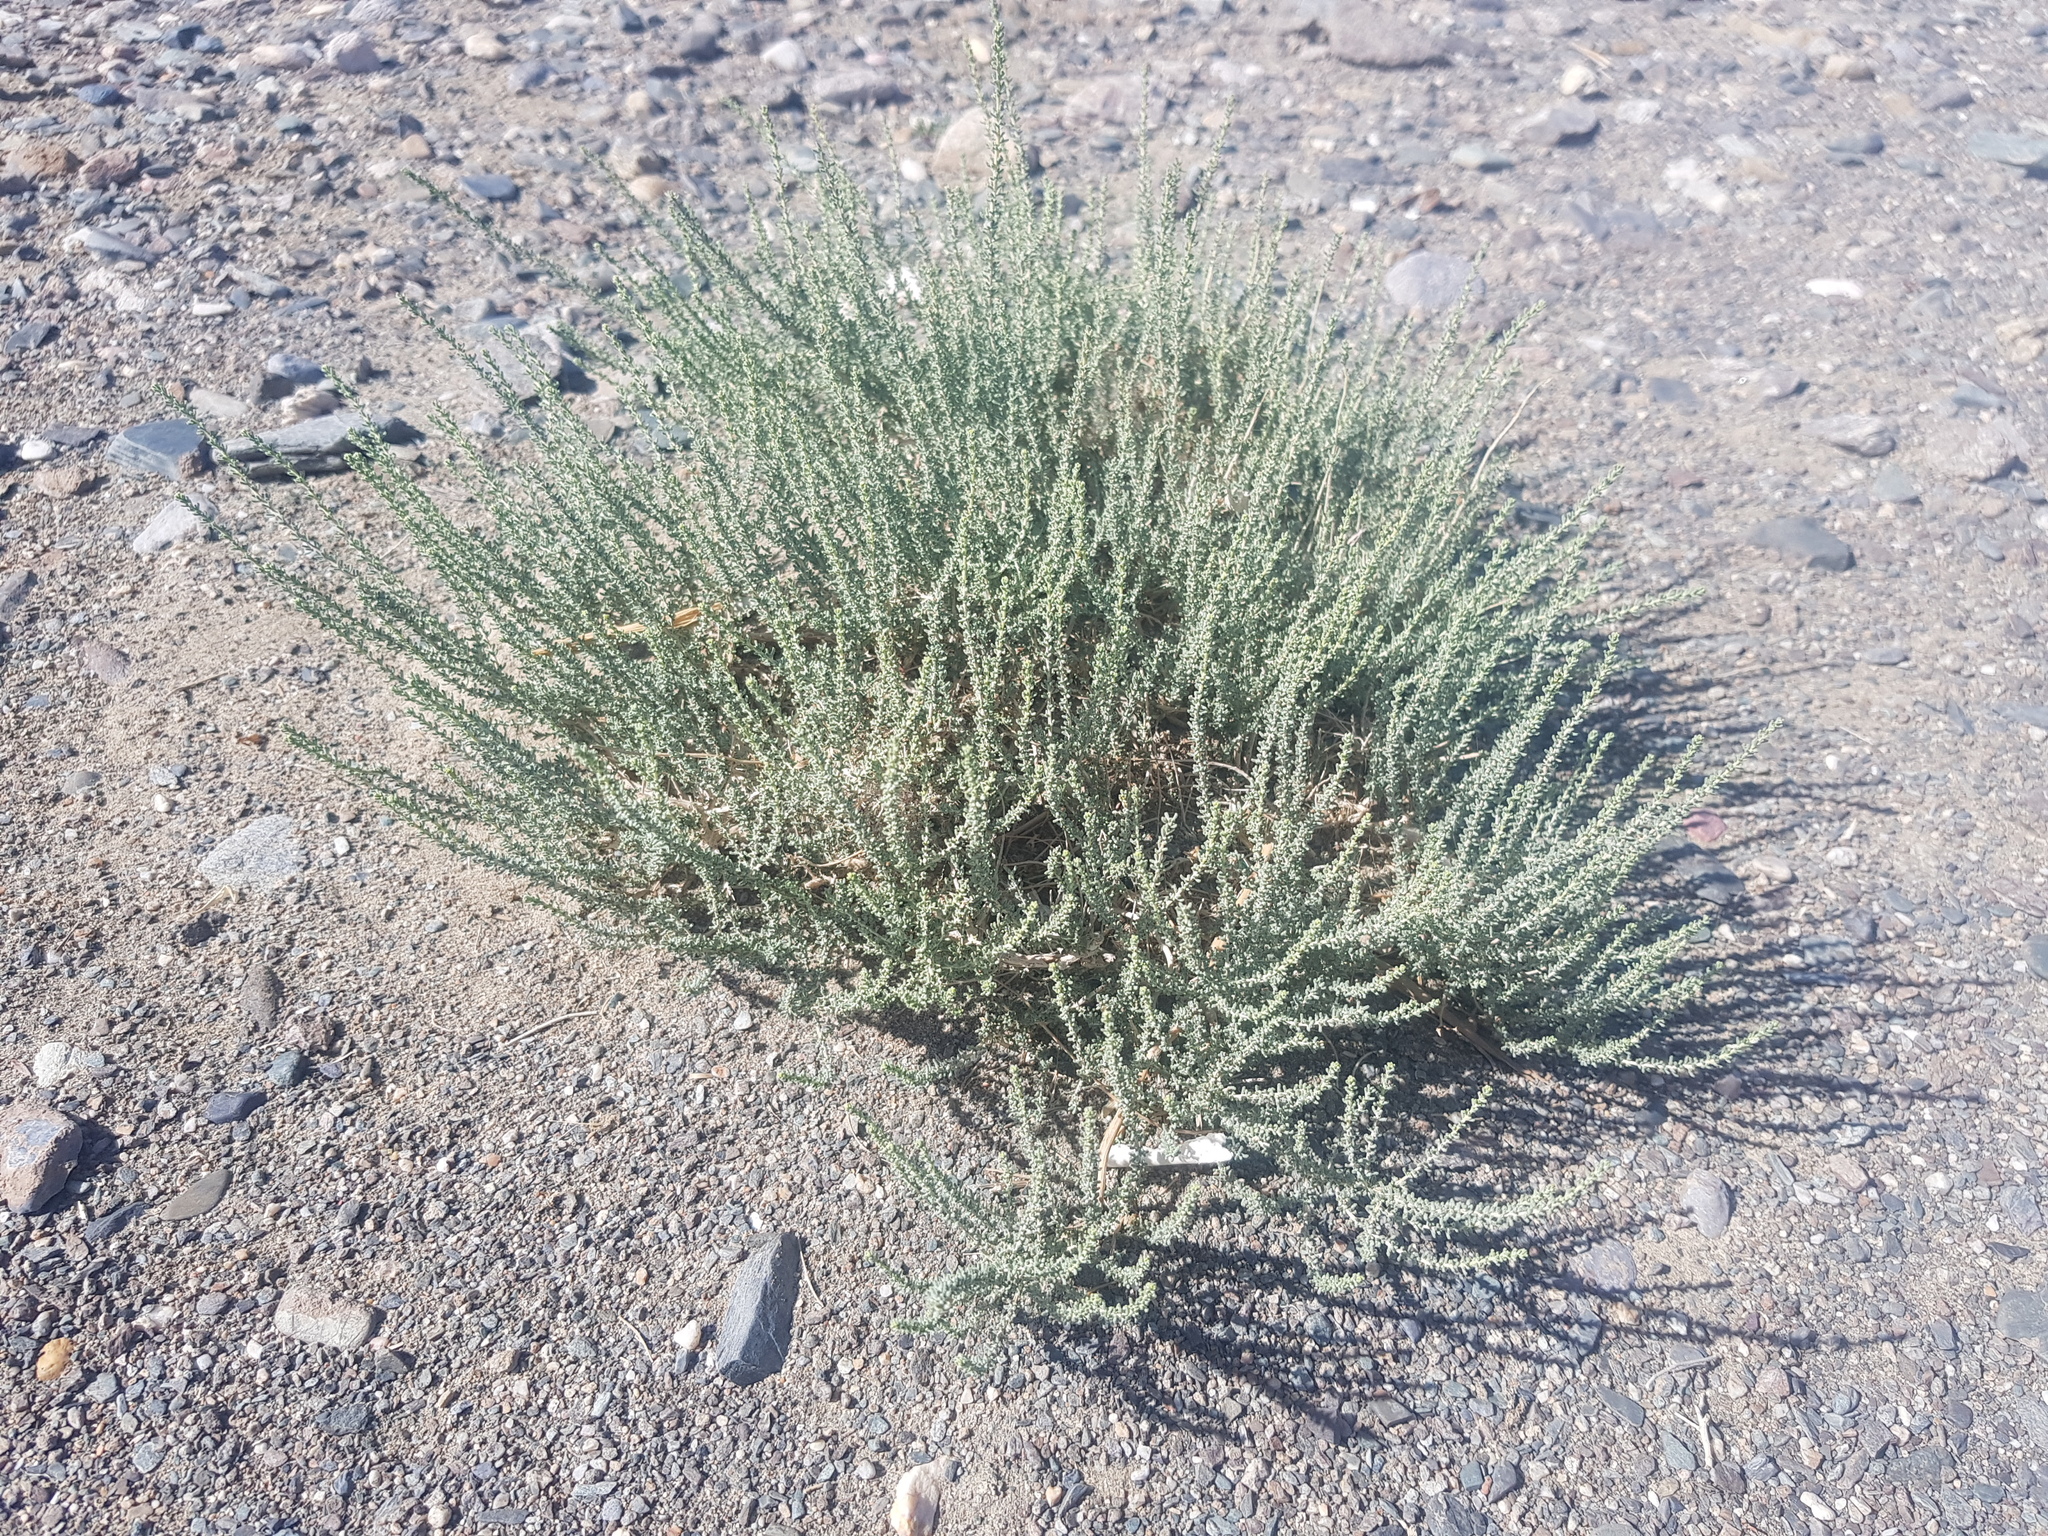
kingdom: Plantae
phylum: Tracheophyta
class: Magnoliopsida
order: Caryophyllales
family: Tamaricaceae
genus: Reaumuria
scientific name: Reaumuria songarica
